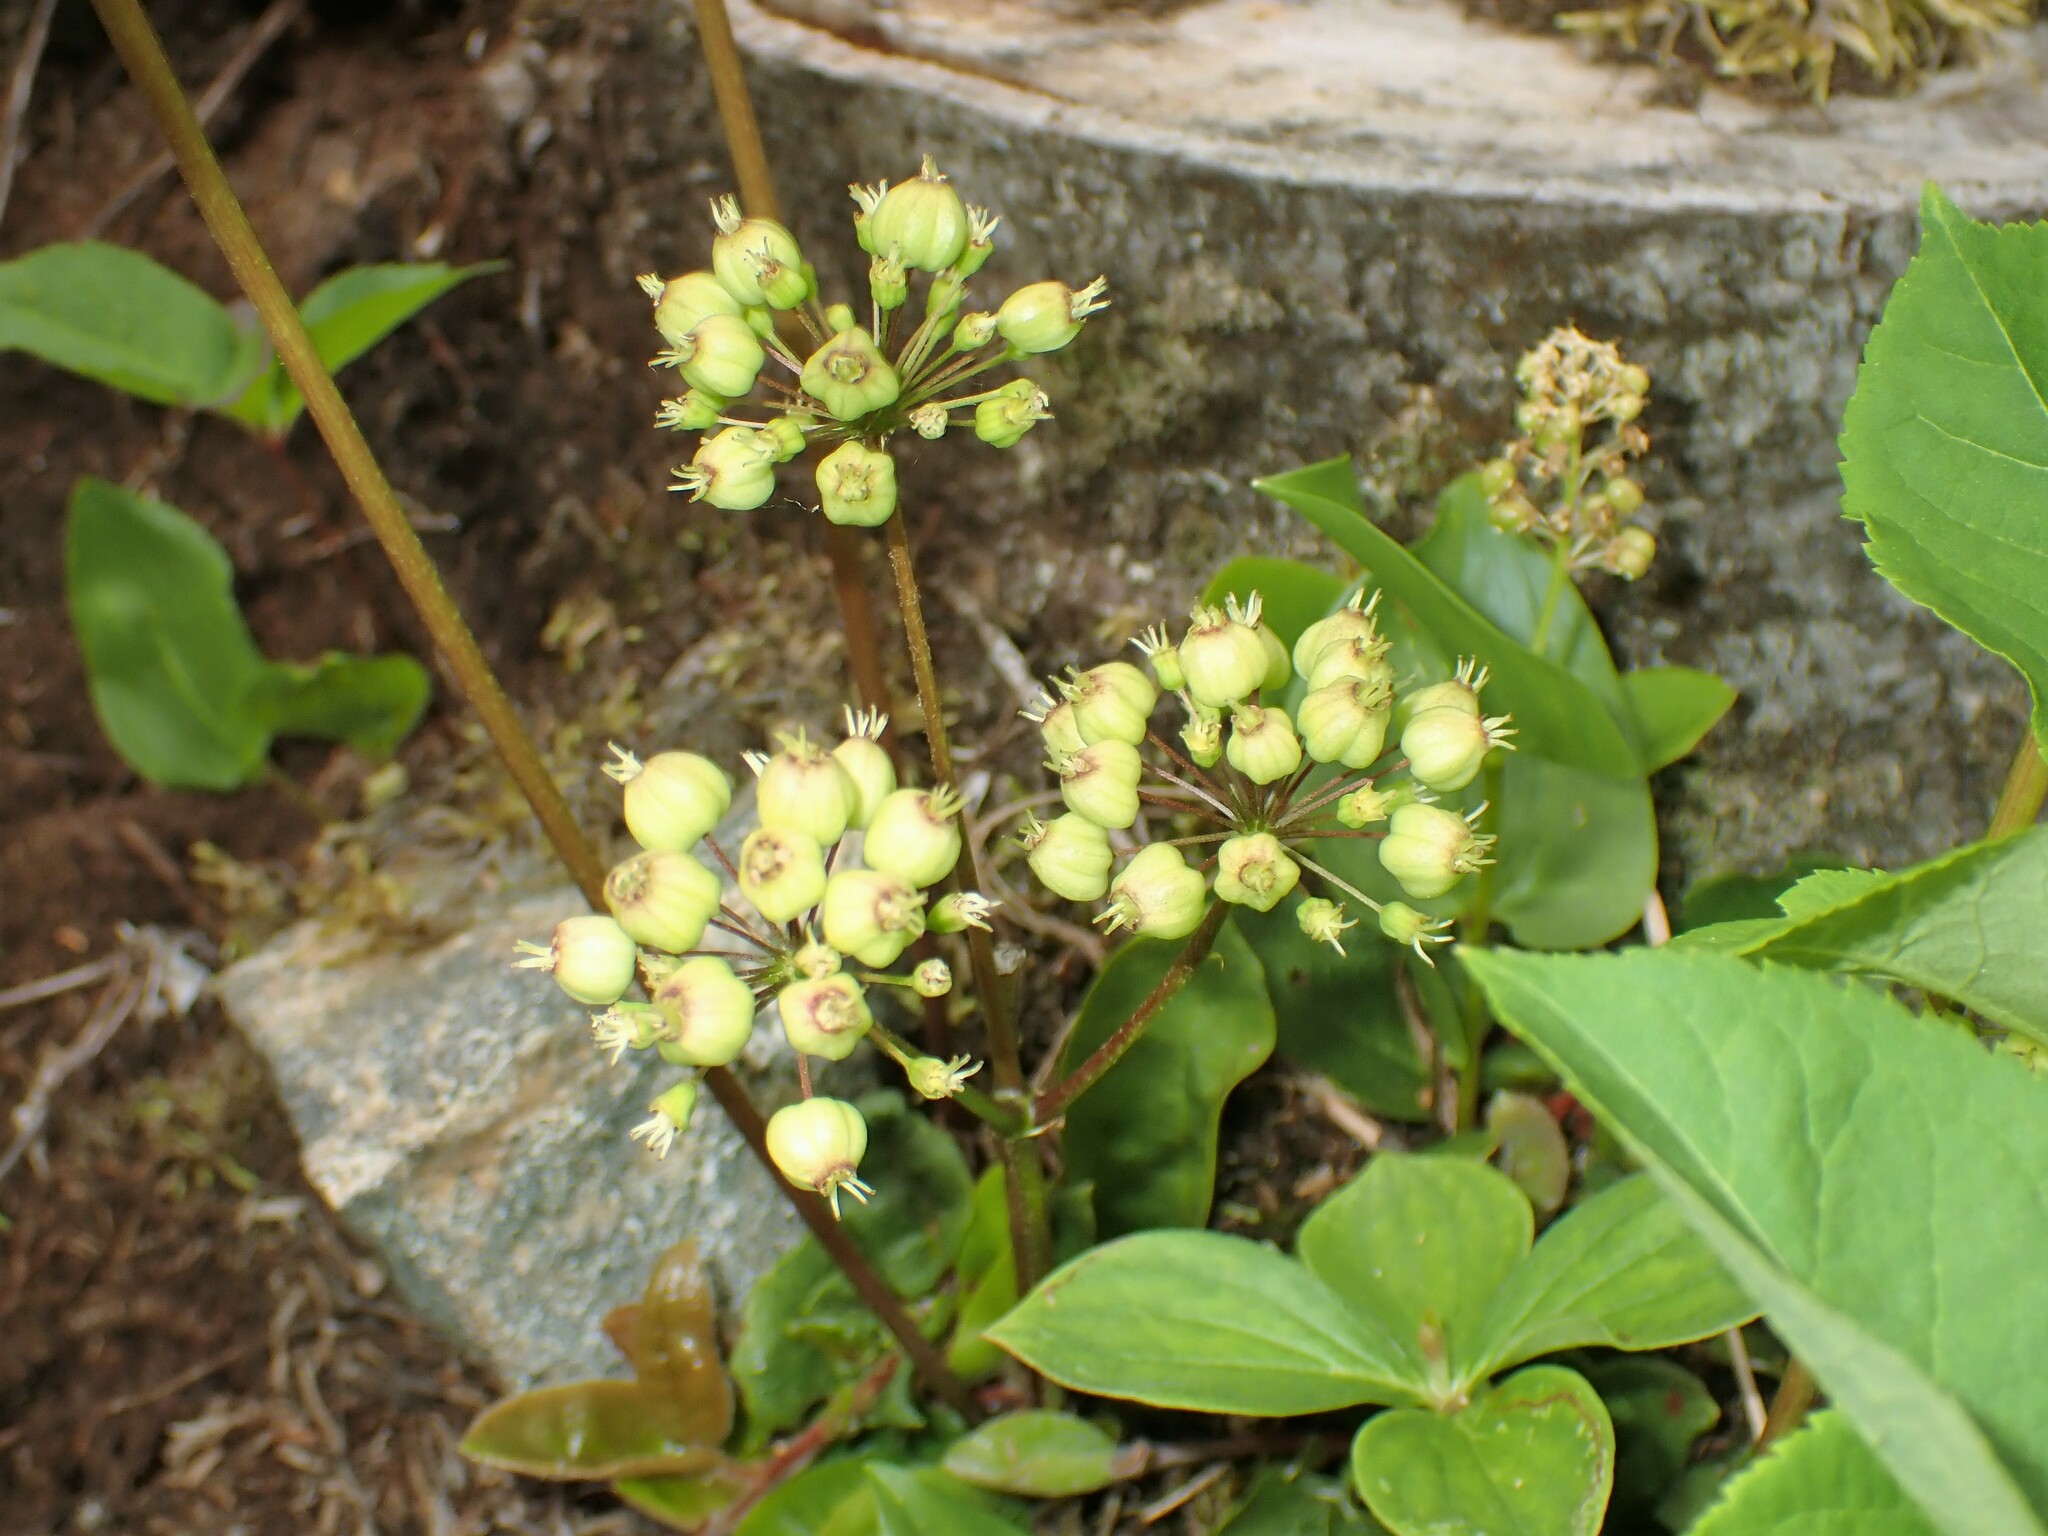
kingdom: Plantae
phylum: Tracheophyta
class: Magnoliopsida
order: Apiales
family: Araliaceae
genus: Aralia
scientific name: Aralia nudicaulis
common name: Wild sarsaparilla
